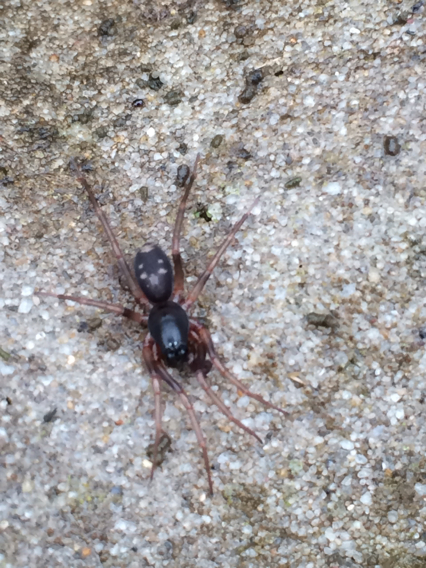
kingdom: Animalia
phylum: Arthropoda
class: Arachnida
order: Araneae
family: Corinnidae
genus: Falconina
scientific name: Falconina gracilis
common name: Antmimic spider
